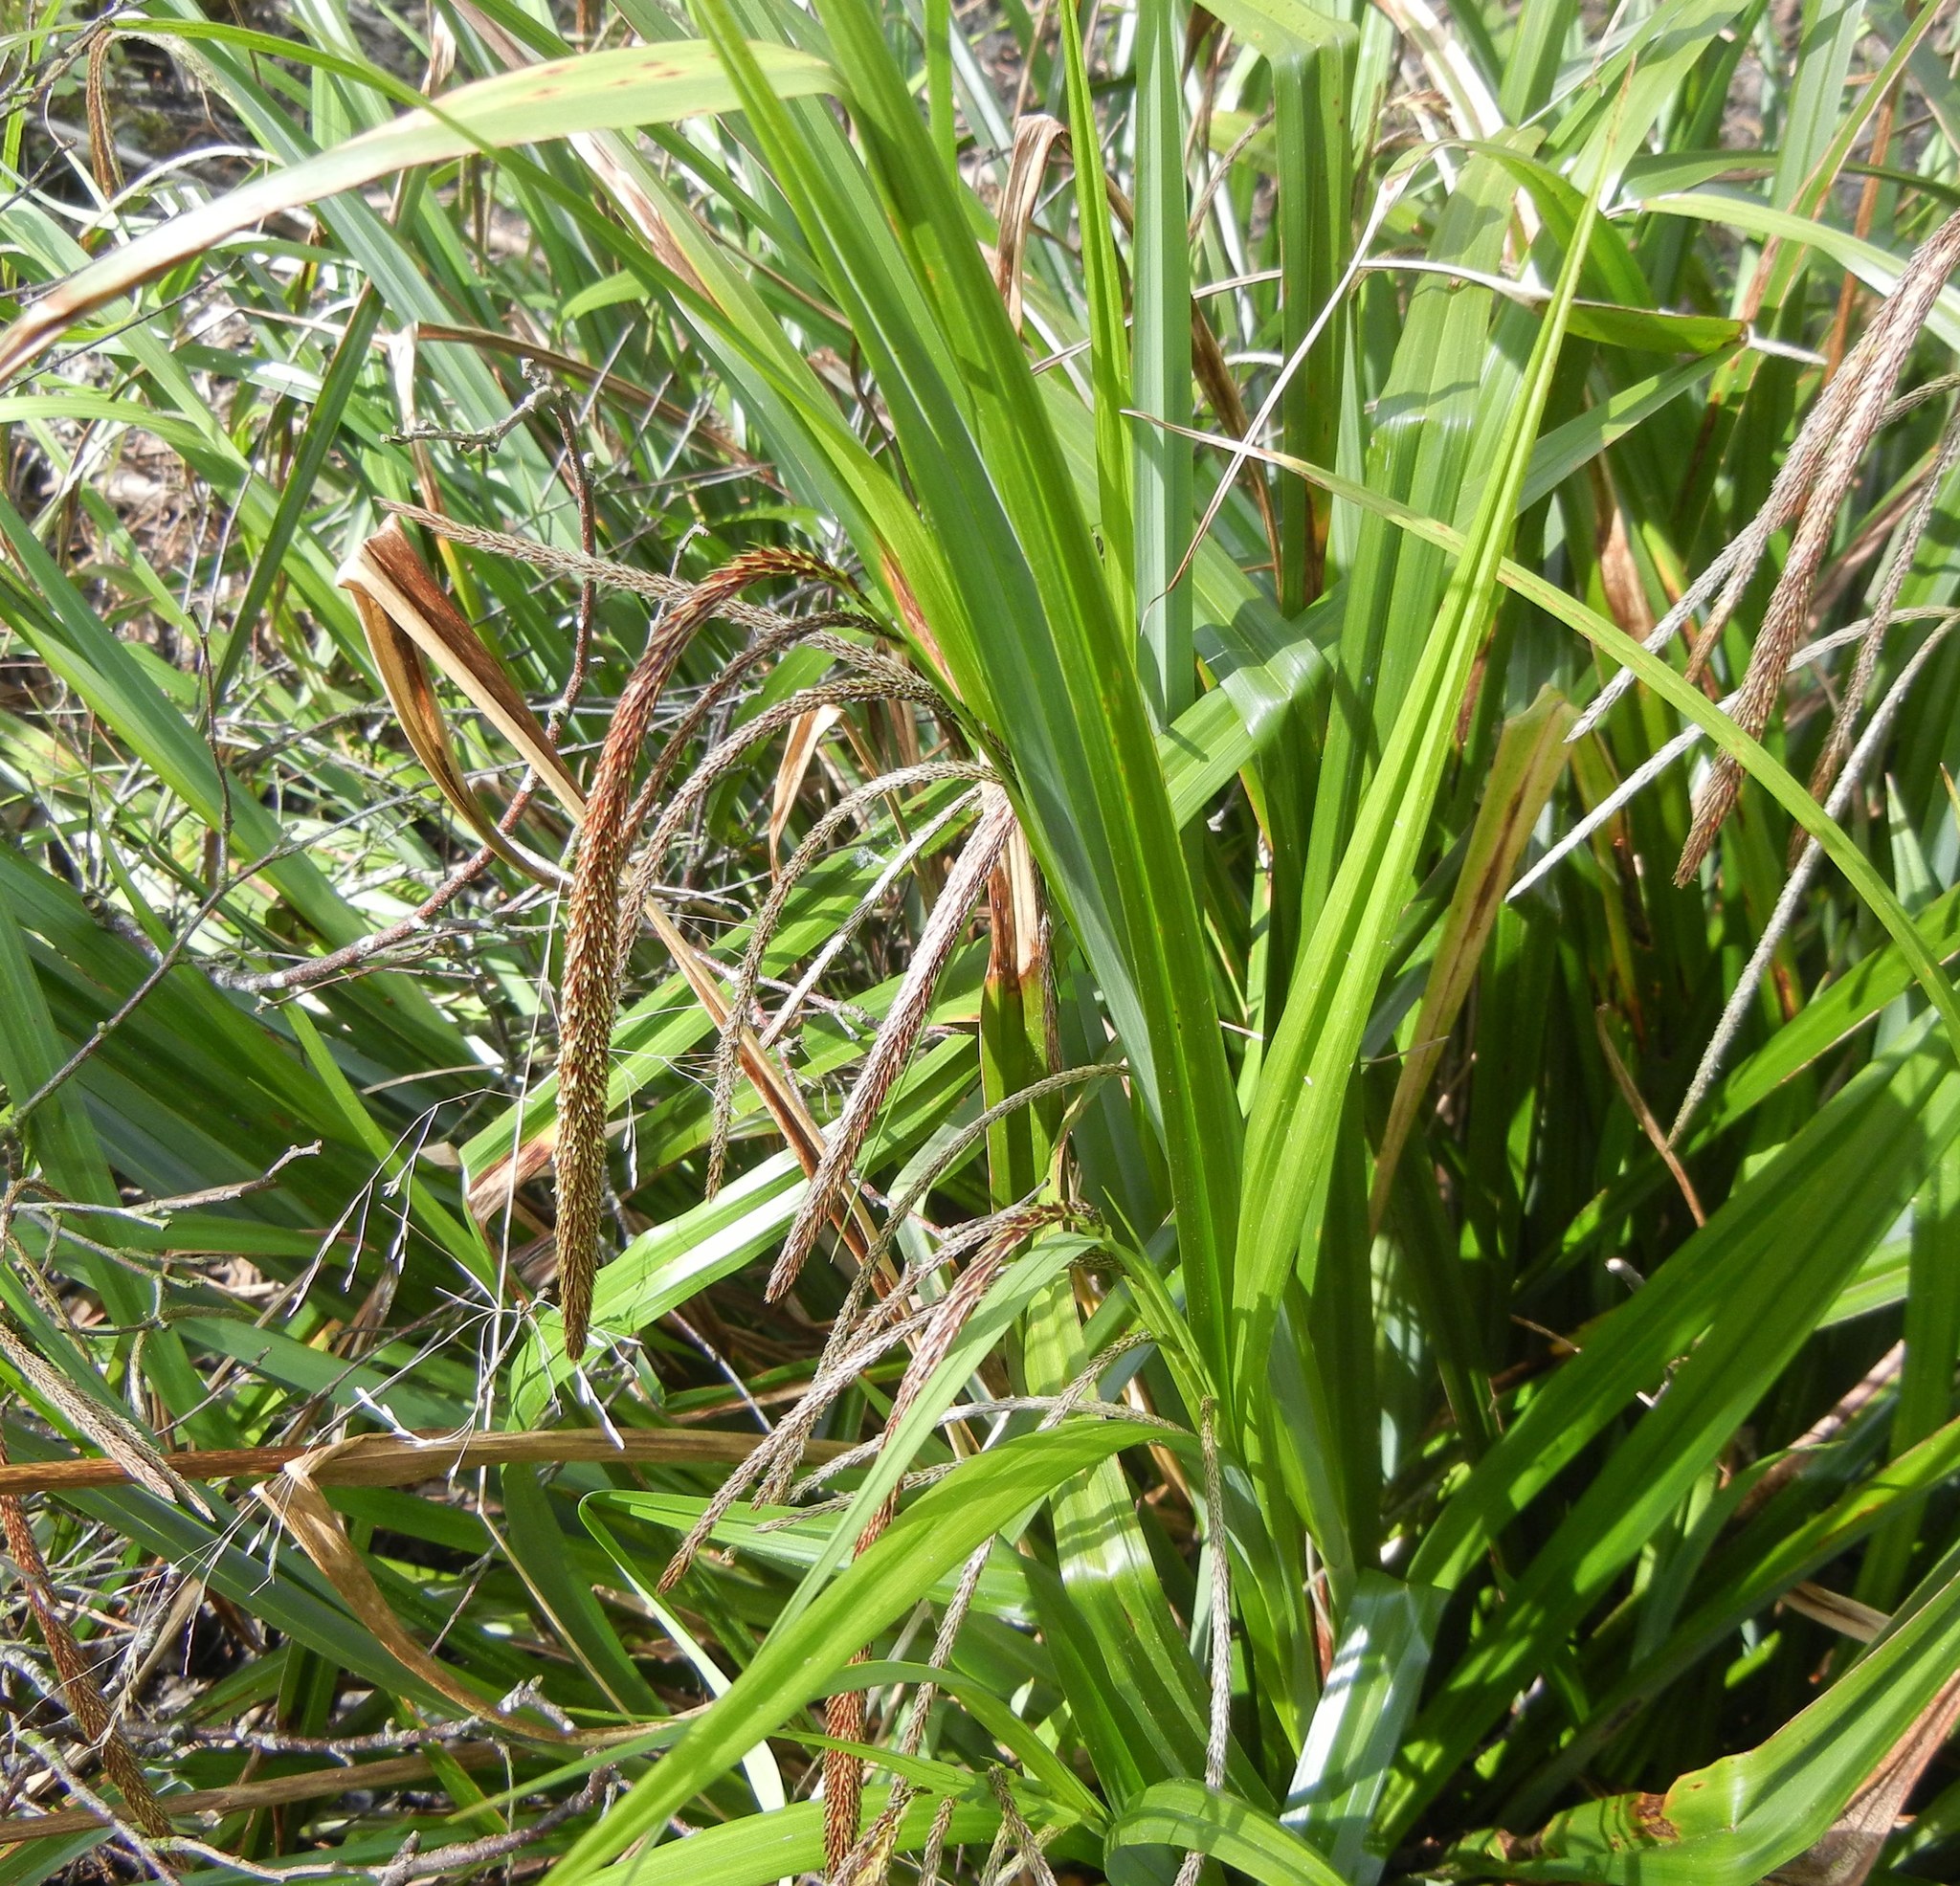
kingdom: Plantae
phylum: Tracheophyta
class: Liliopsida
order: Poales
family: Cyperaceae
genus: Carex
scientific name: Carex pendula
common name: Pendulous sedge
